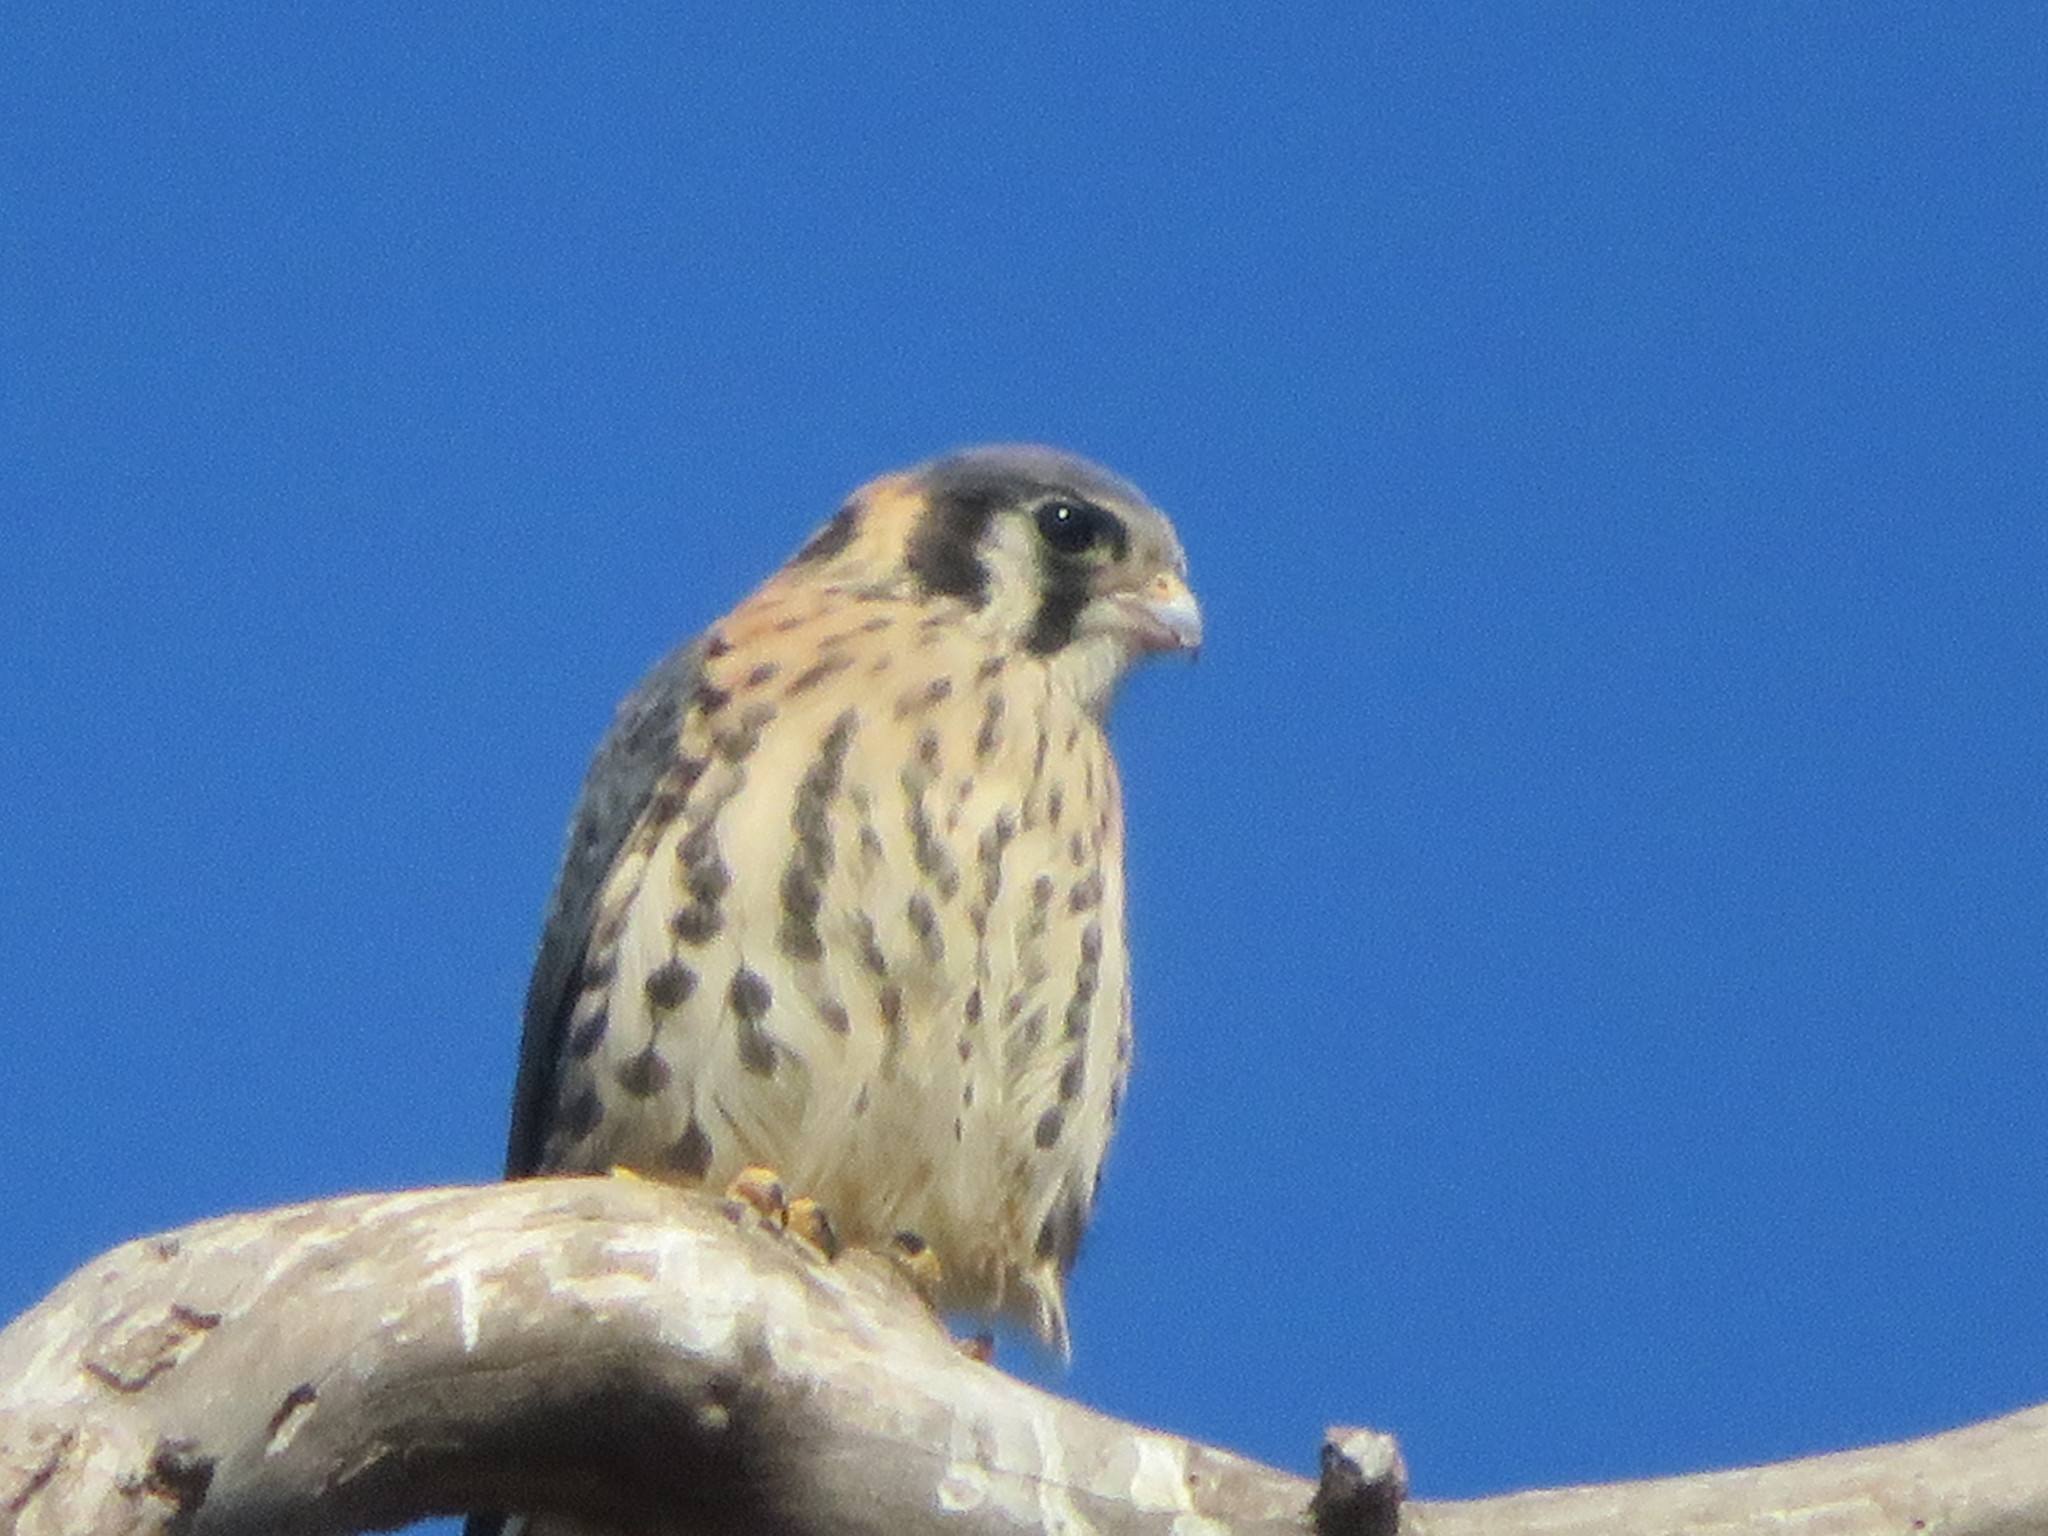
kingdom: Animalia
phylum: Chordata
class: Aves
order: Falconiformes
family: Falconidae
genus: Falco
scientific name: Falco sparverius
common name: American kestrel
